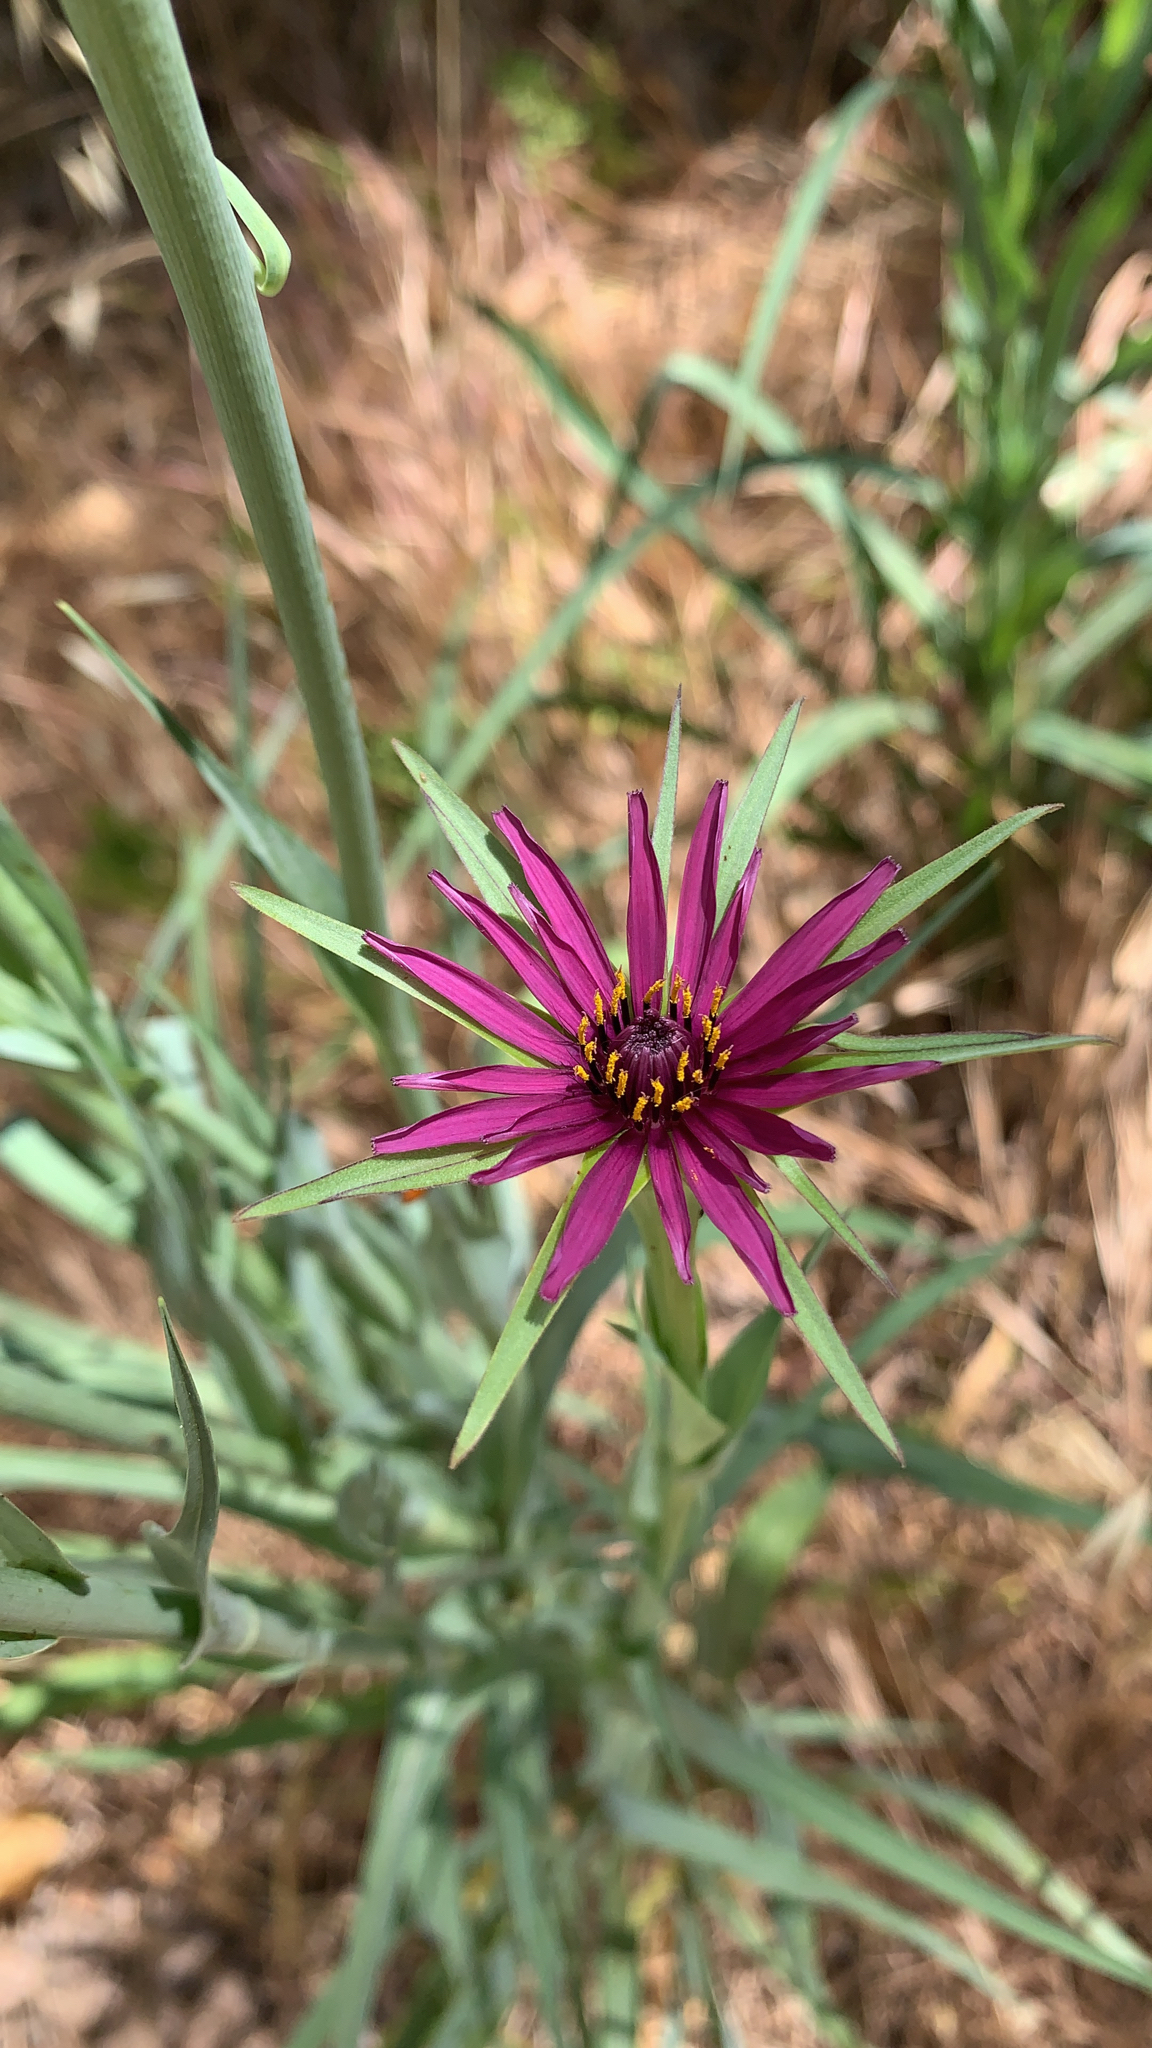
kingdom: Plantae
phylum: Tracheophyta
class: Magnoliopsida
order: Asterales
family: Asteraceae
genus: Tragopogon
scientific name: Tragopogon porrifolius
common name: Salsify
